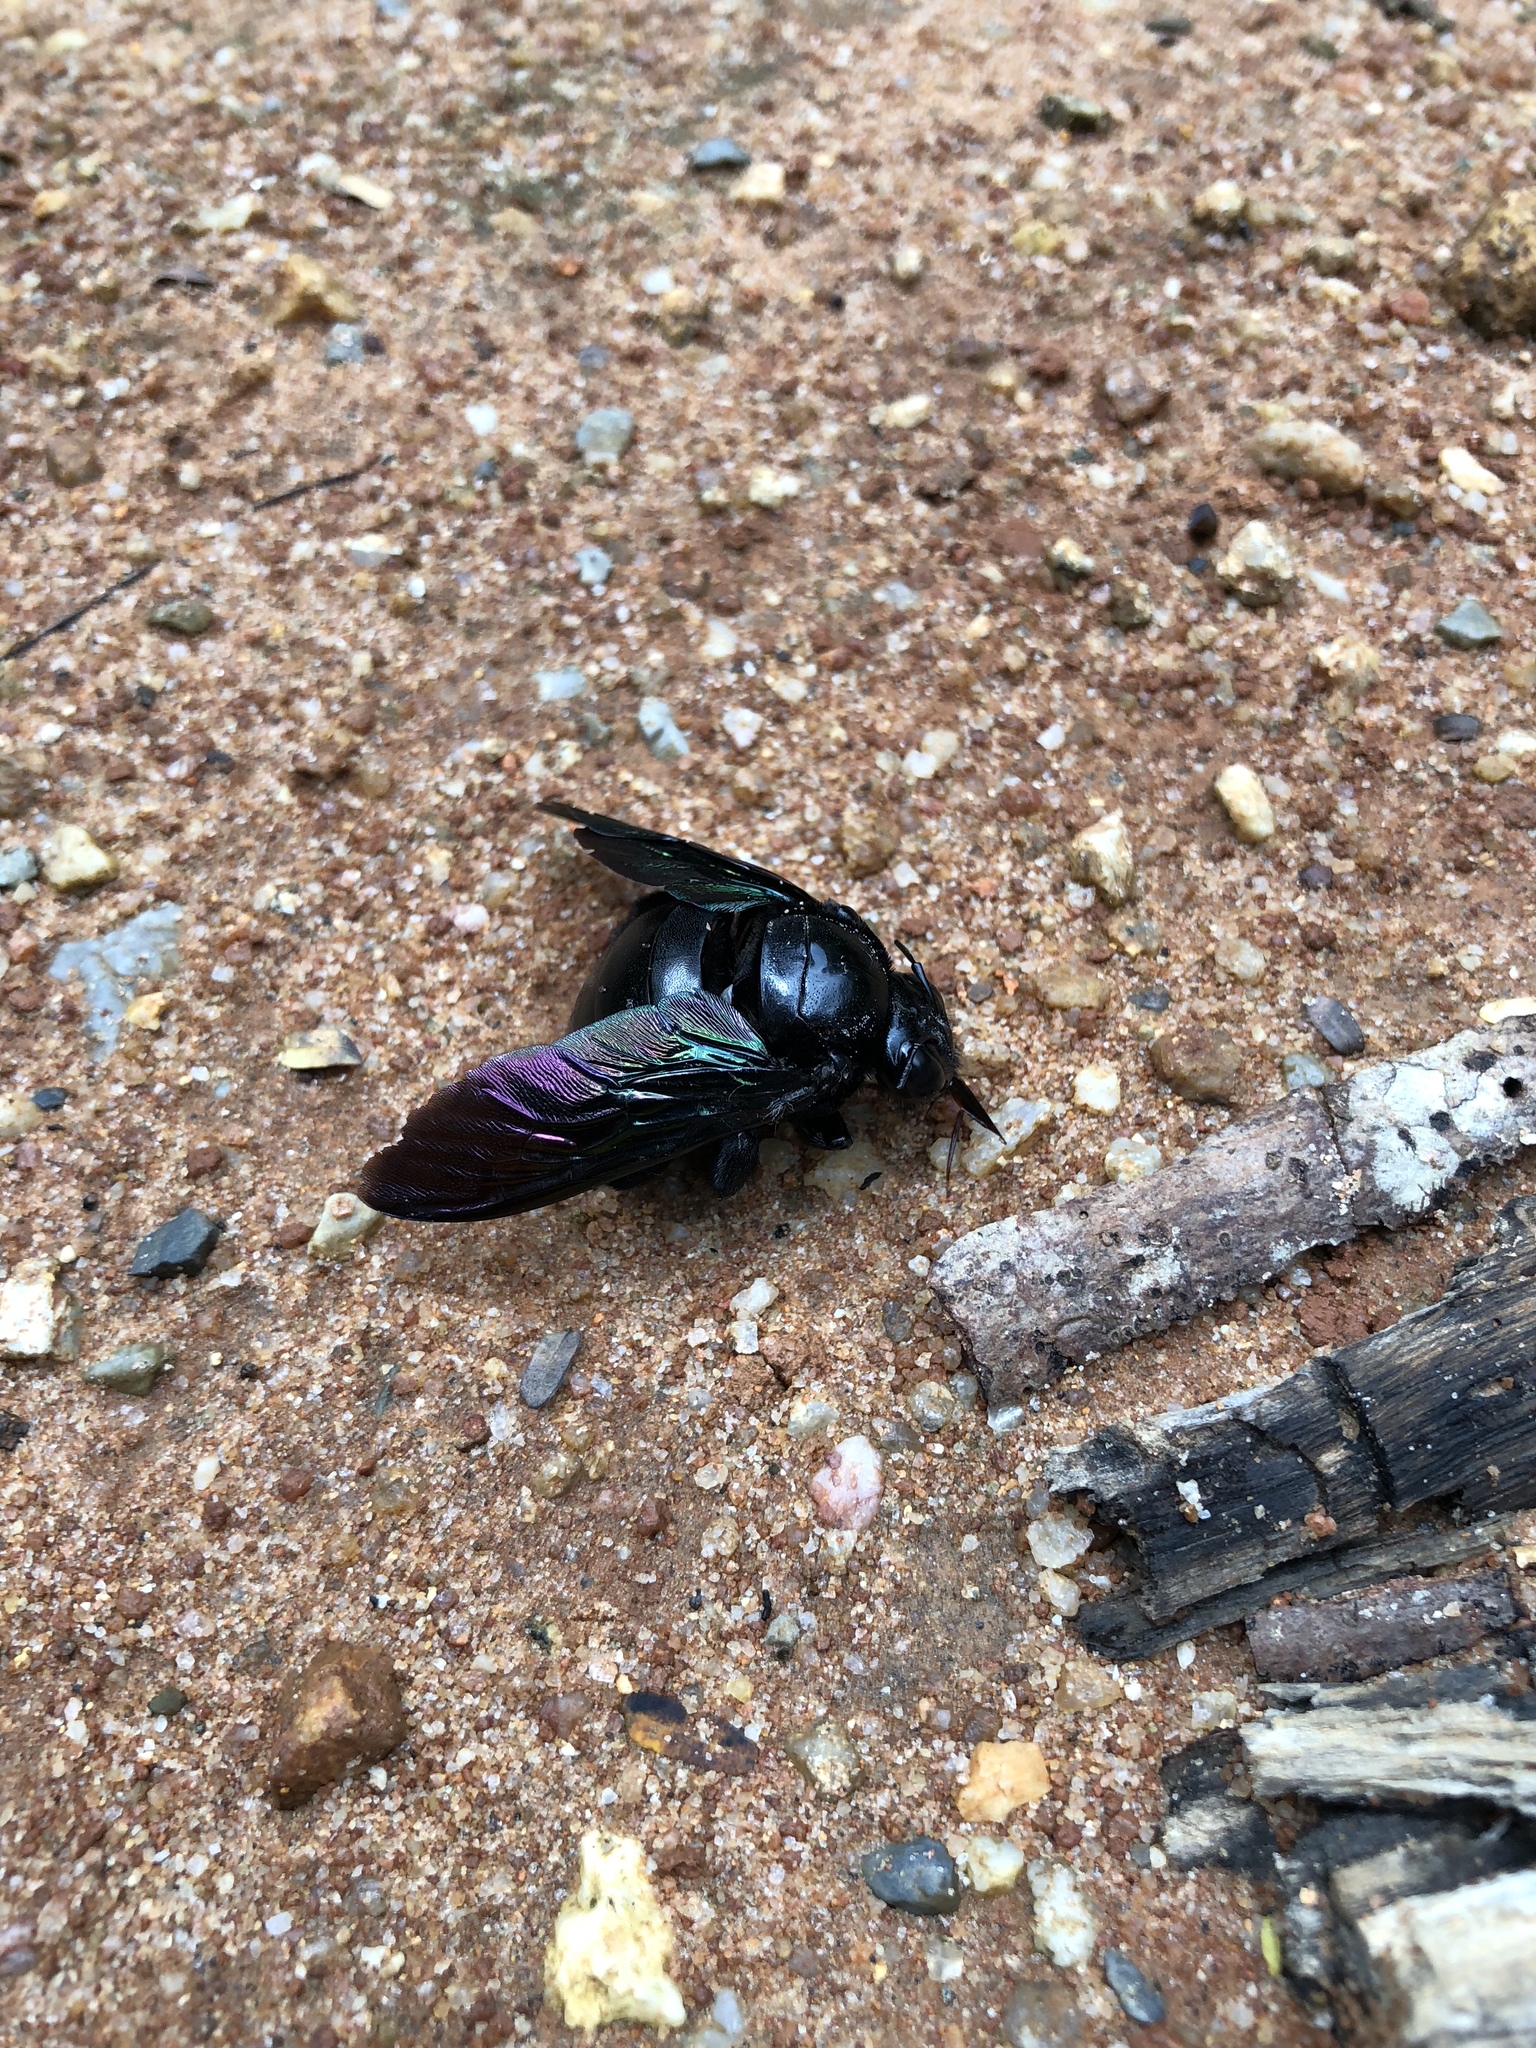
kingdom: Animalia
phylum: Arthropoda
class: Insecta
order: Hymenoptera
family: Apidae
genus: Xylocopa
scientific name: Xylocopa latipes
